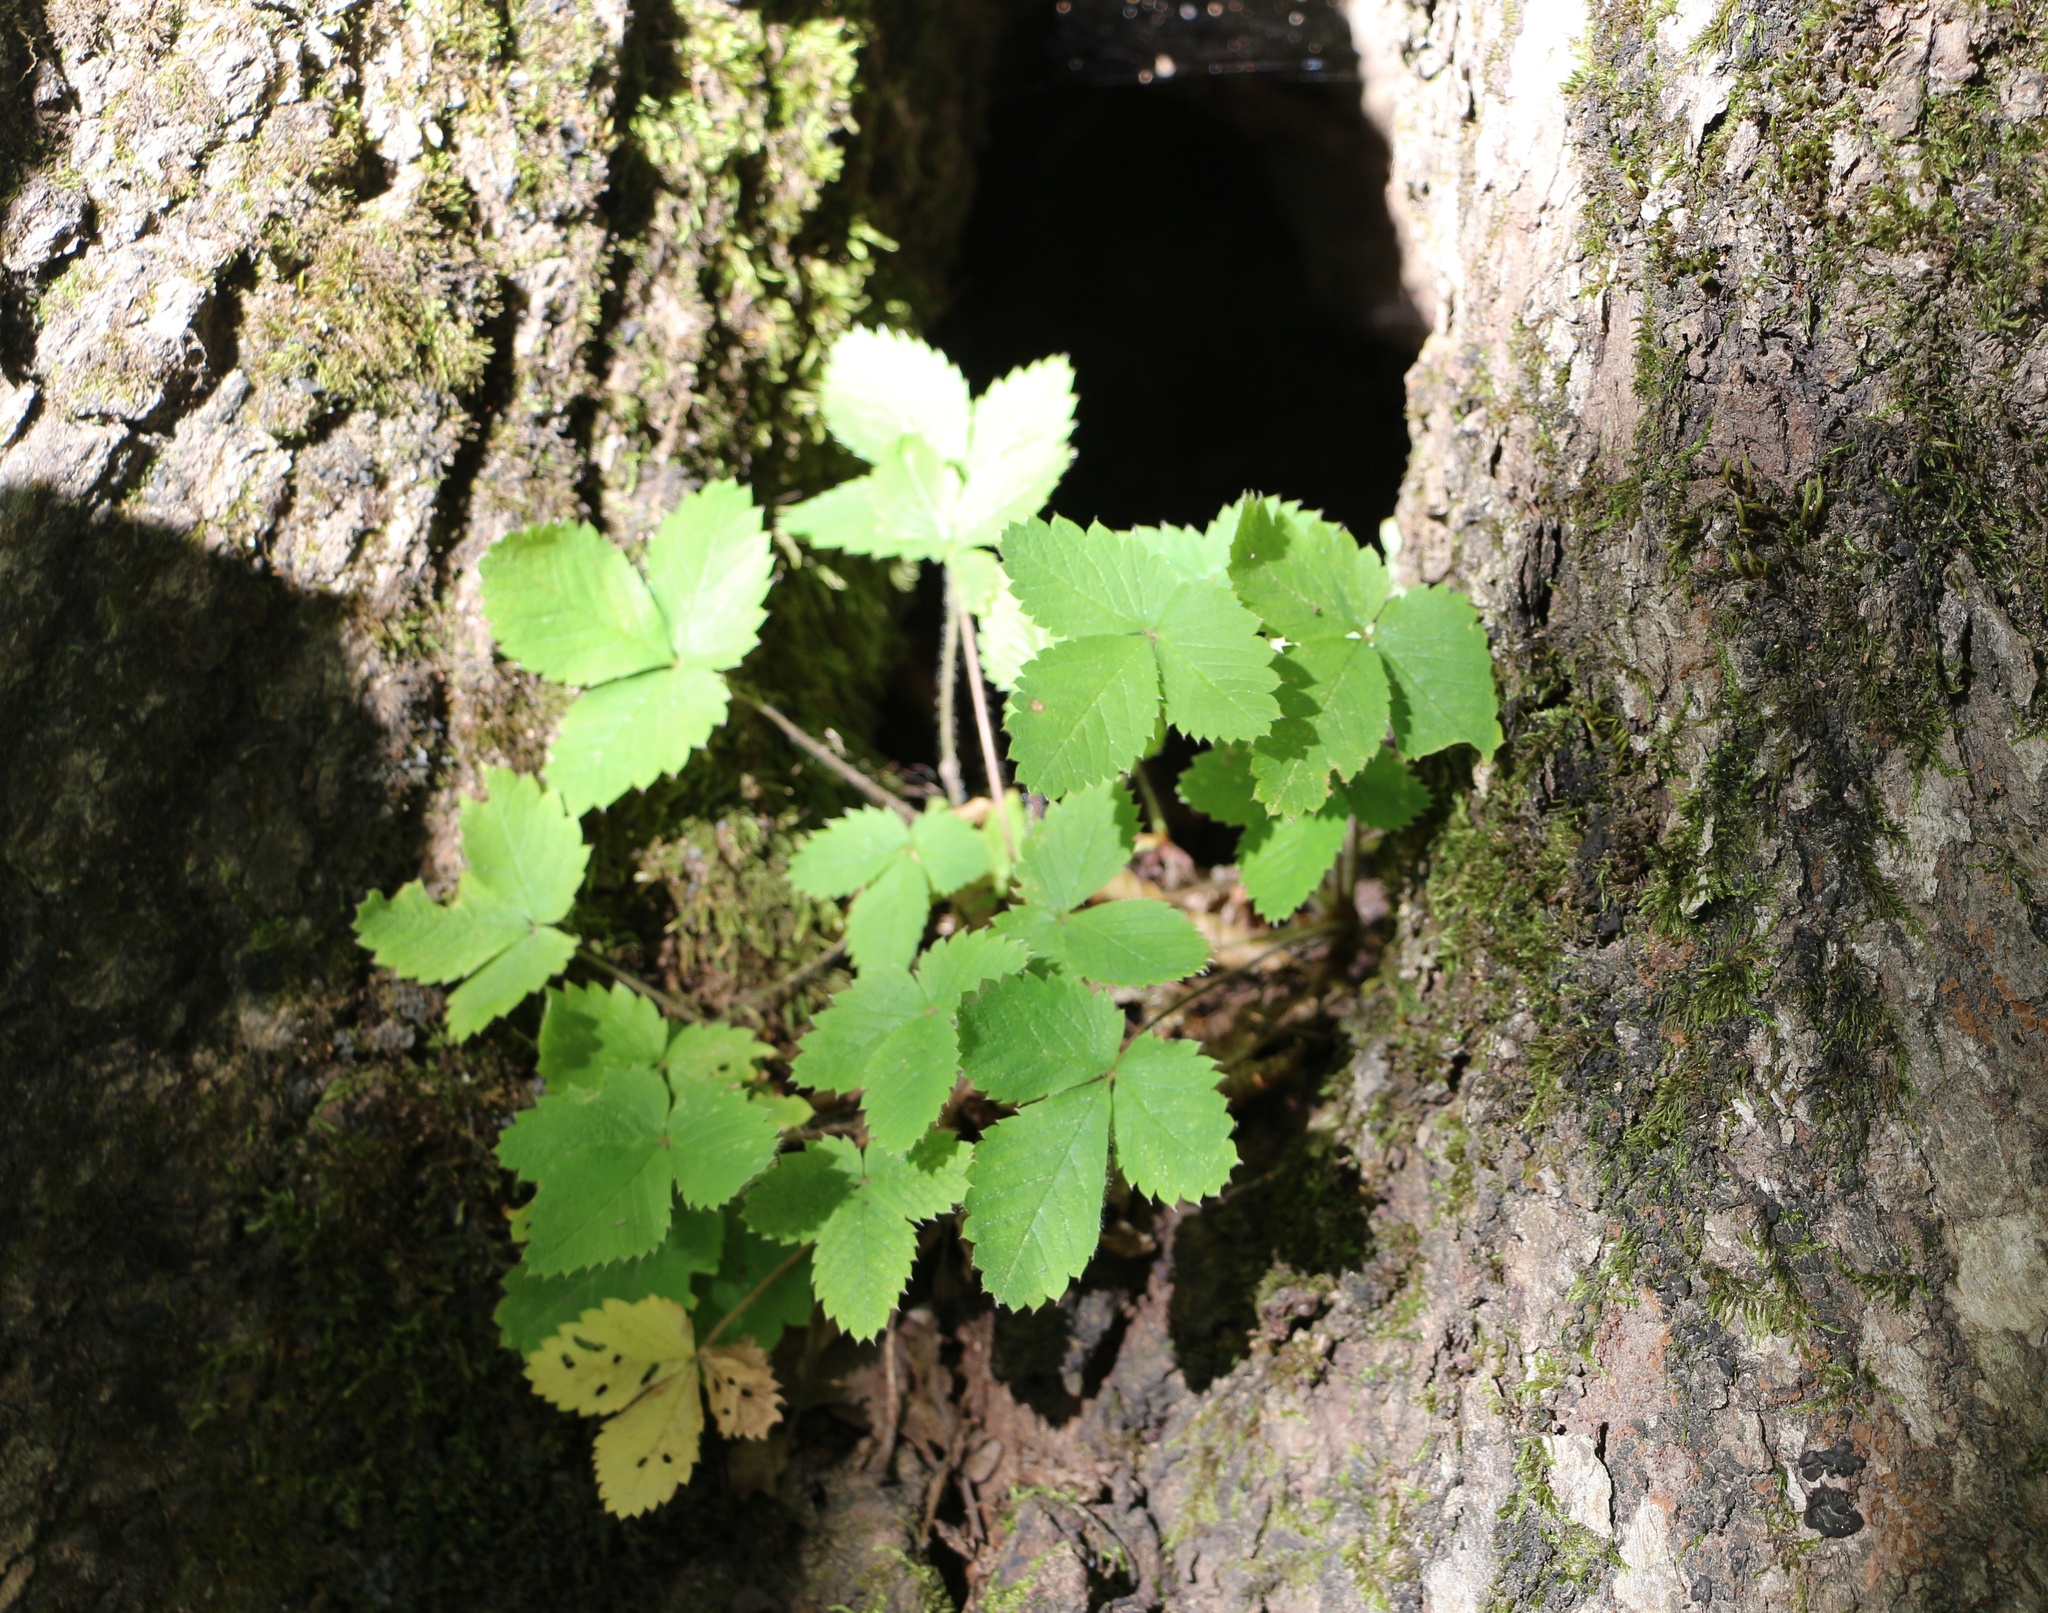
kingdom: Plantae
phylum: Tracheophyta
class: Magnoliopsida
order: Rosales
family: Rosaceae
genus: Potentilla
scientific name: Potentilla micrantha
